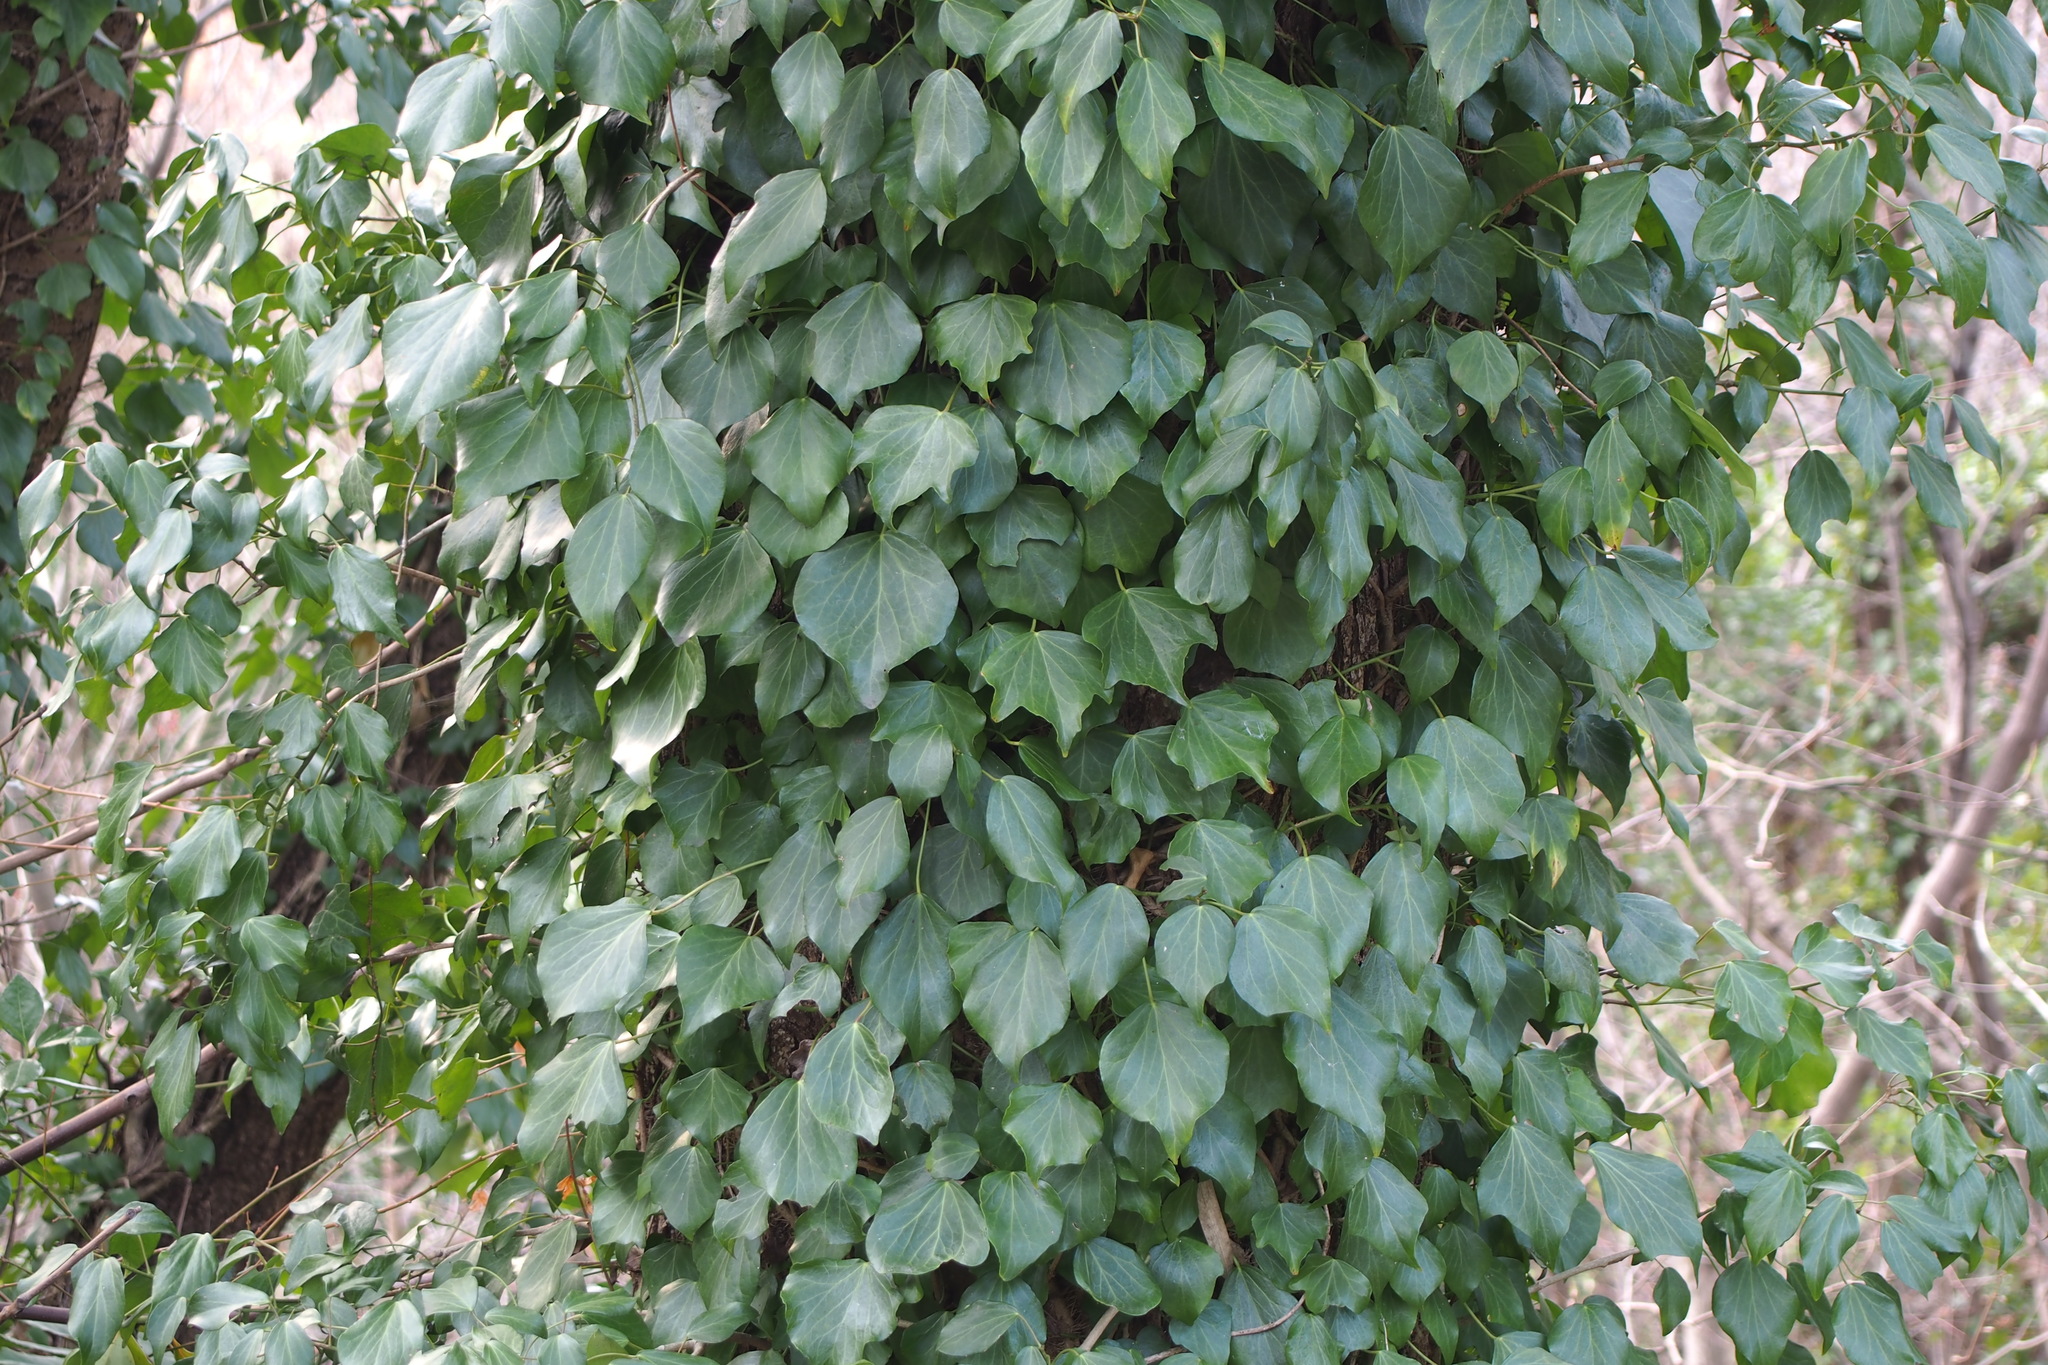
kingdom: Plantae
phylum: Tracheophyta
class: Magnoliopsida
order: Apiales
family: Araliaceae
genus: Hedera
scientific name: Hedera rhombea
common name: Japanese ivy
